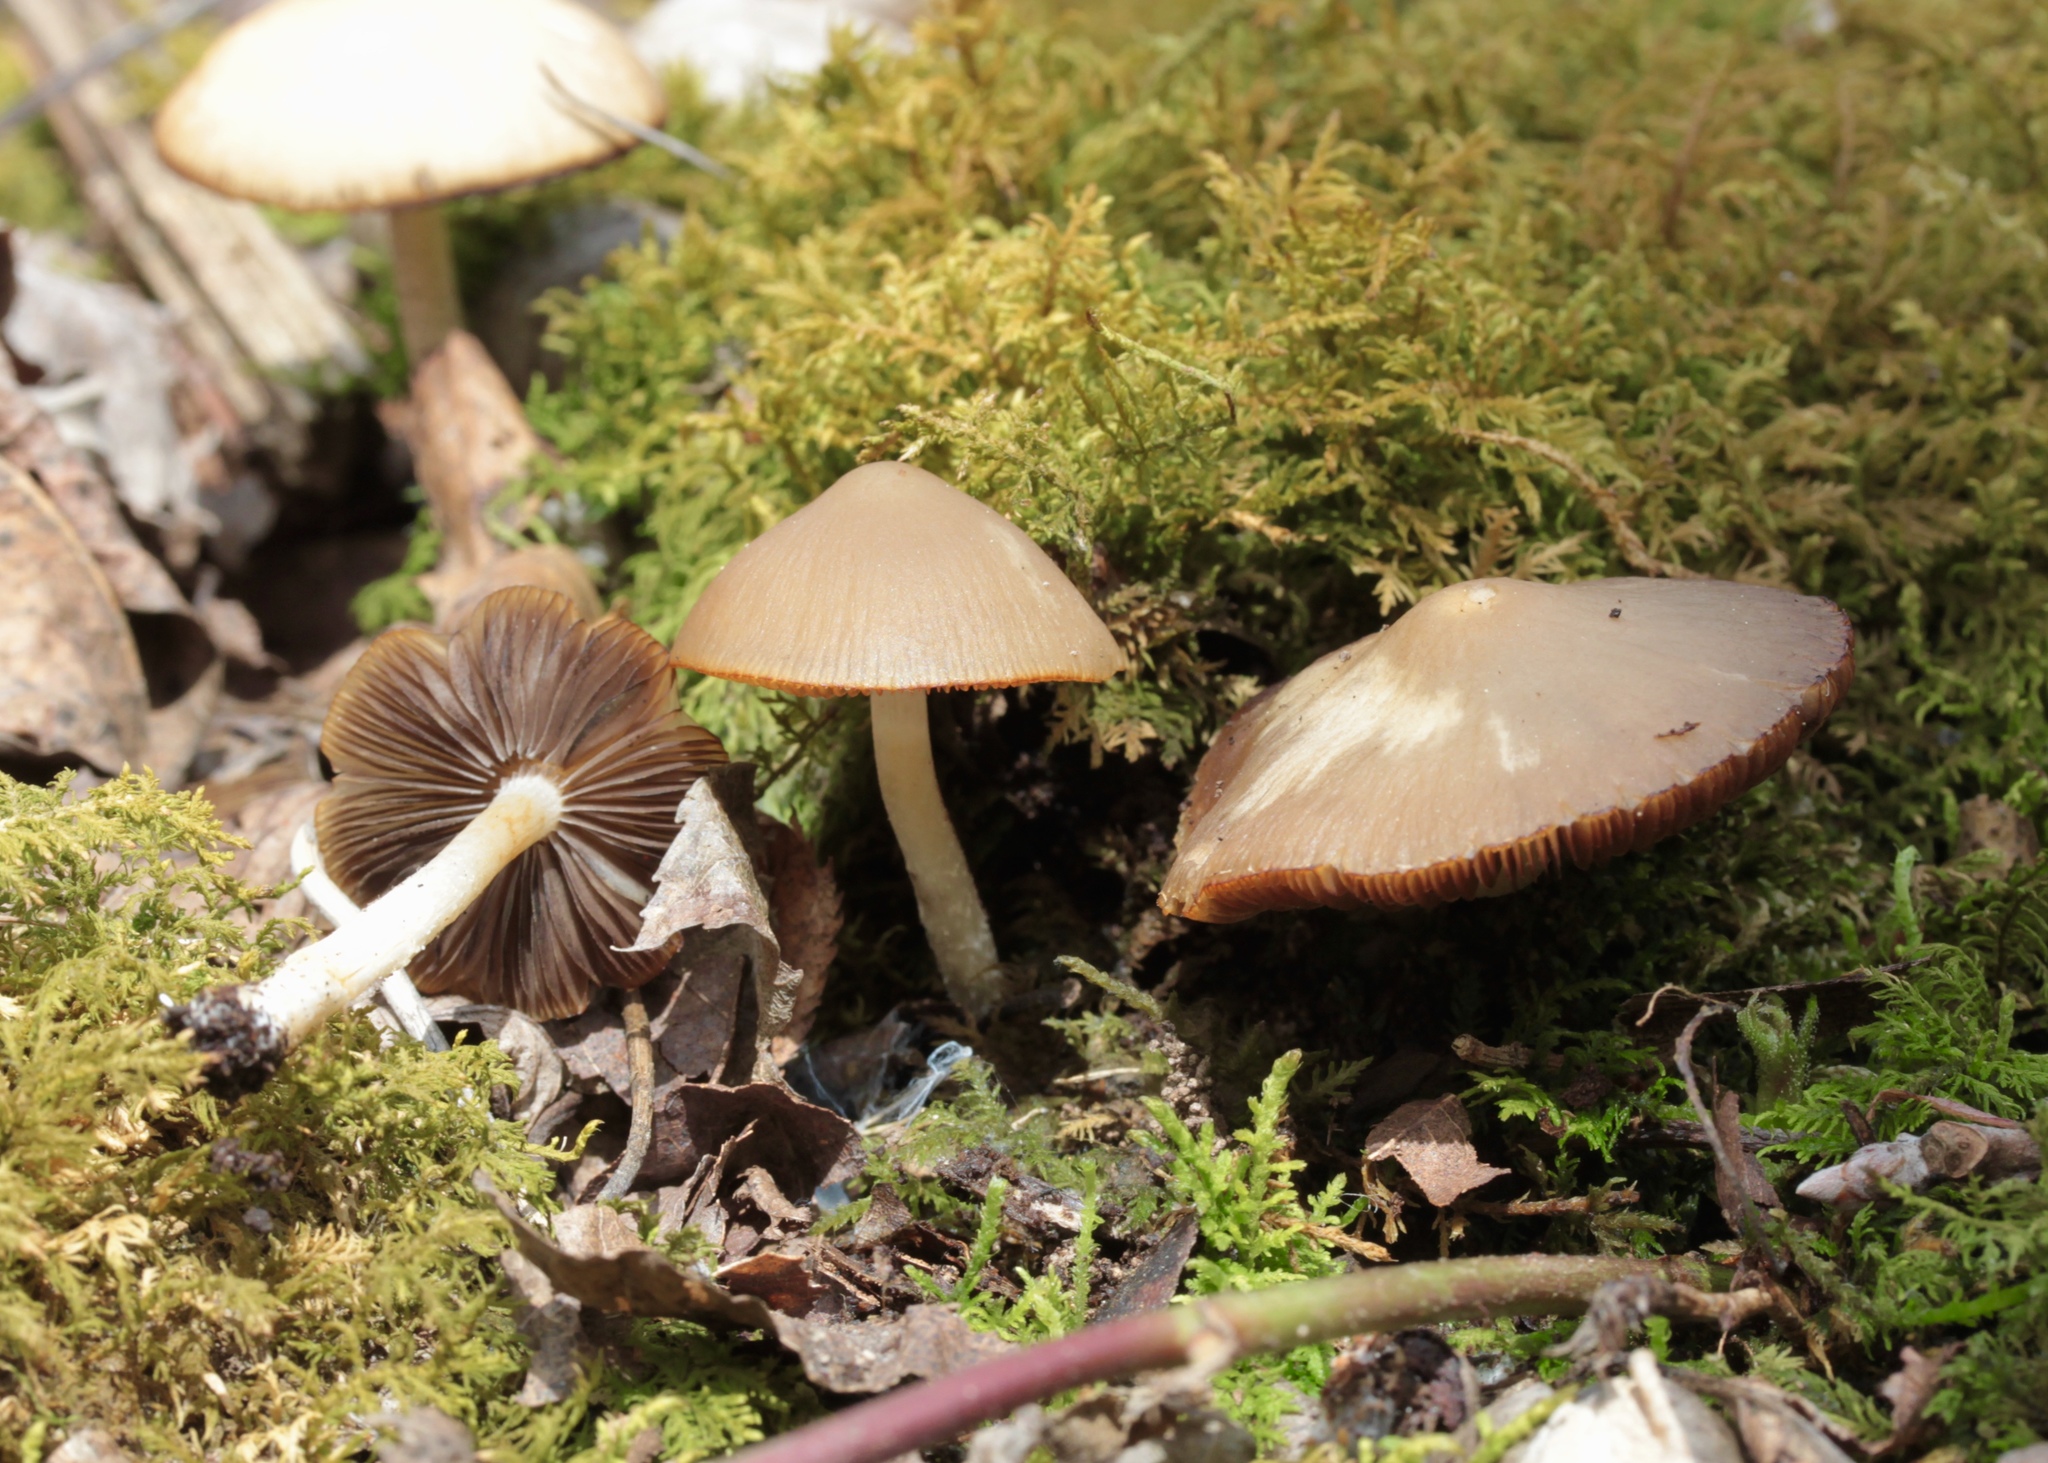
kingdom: Plantae
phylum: Tracheophyta
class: Magnoliopsida
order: Malpighiales
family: Violaceae
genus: Viola
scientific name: Viola eriocarpa
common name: Smooth yellow violet
